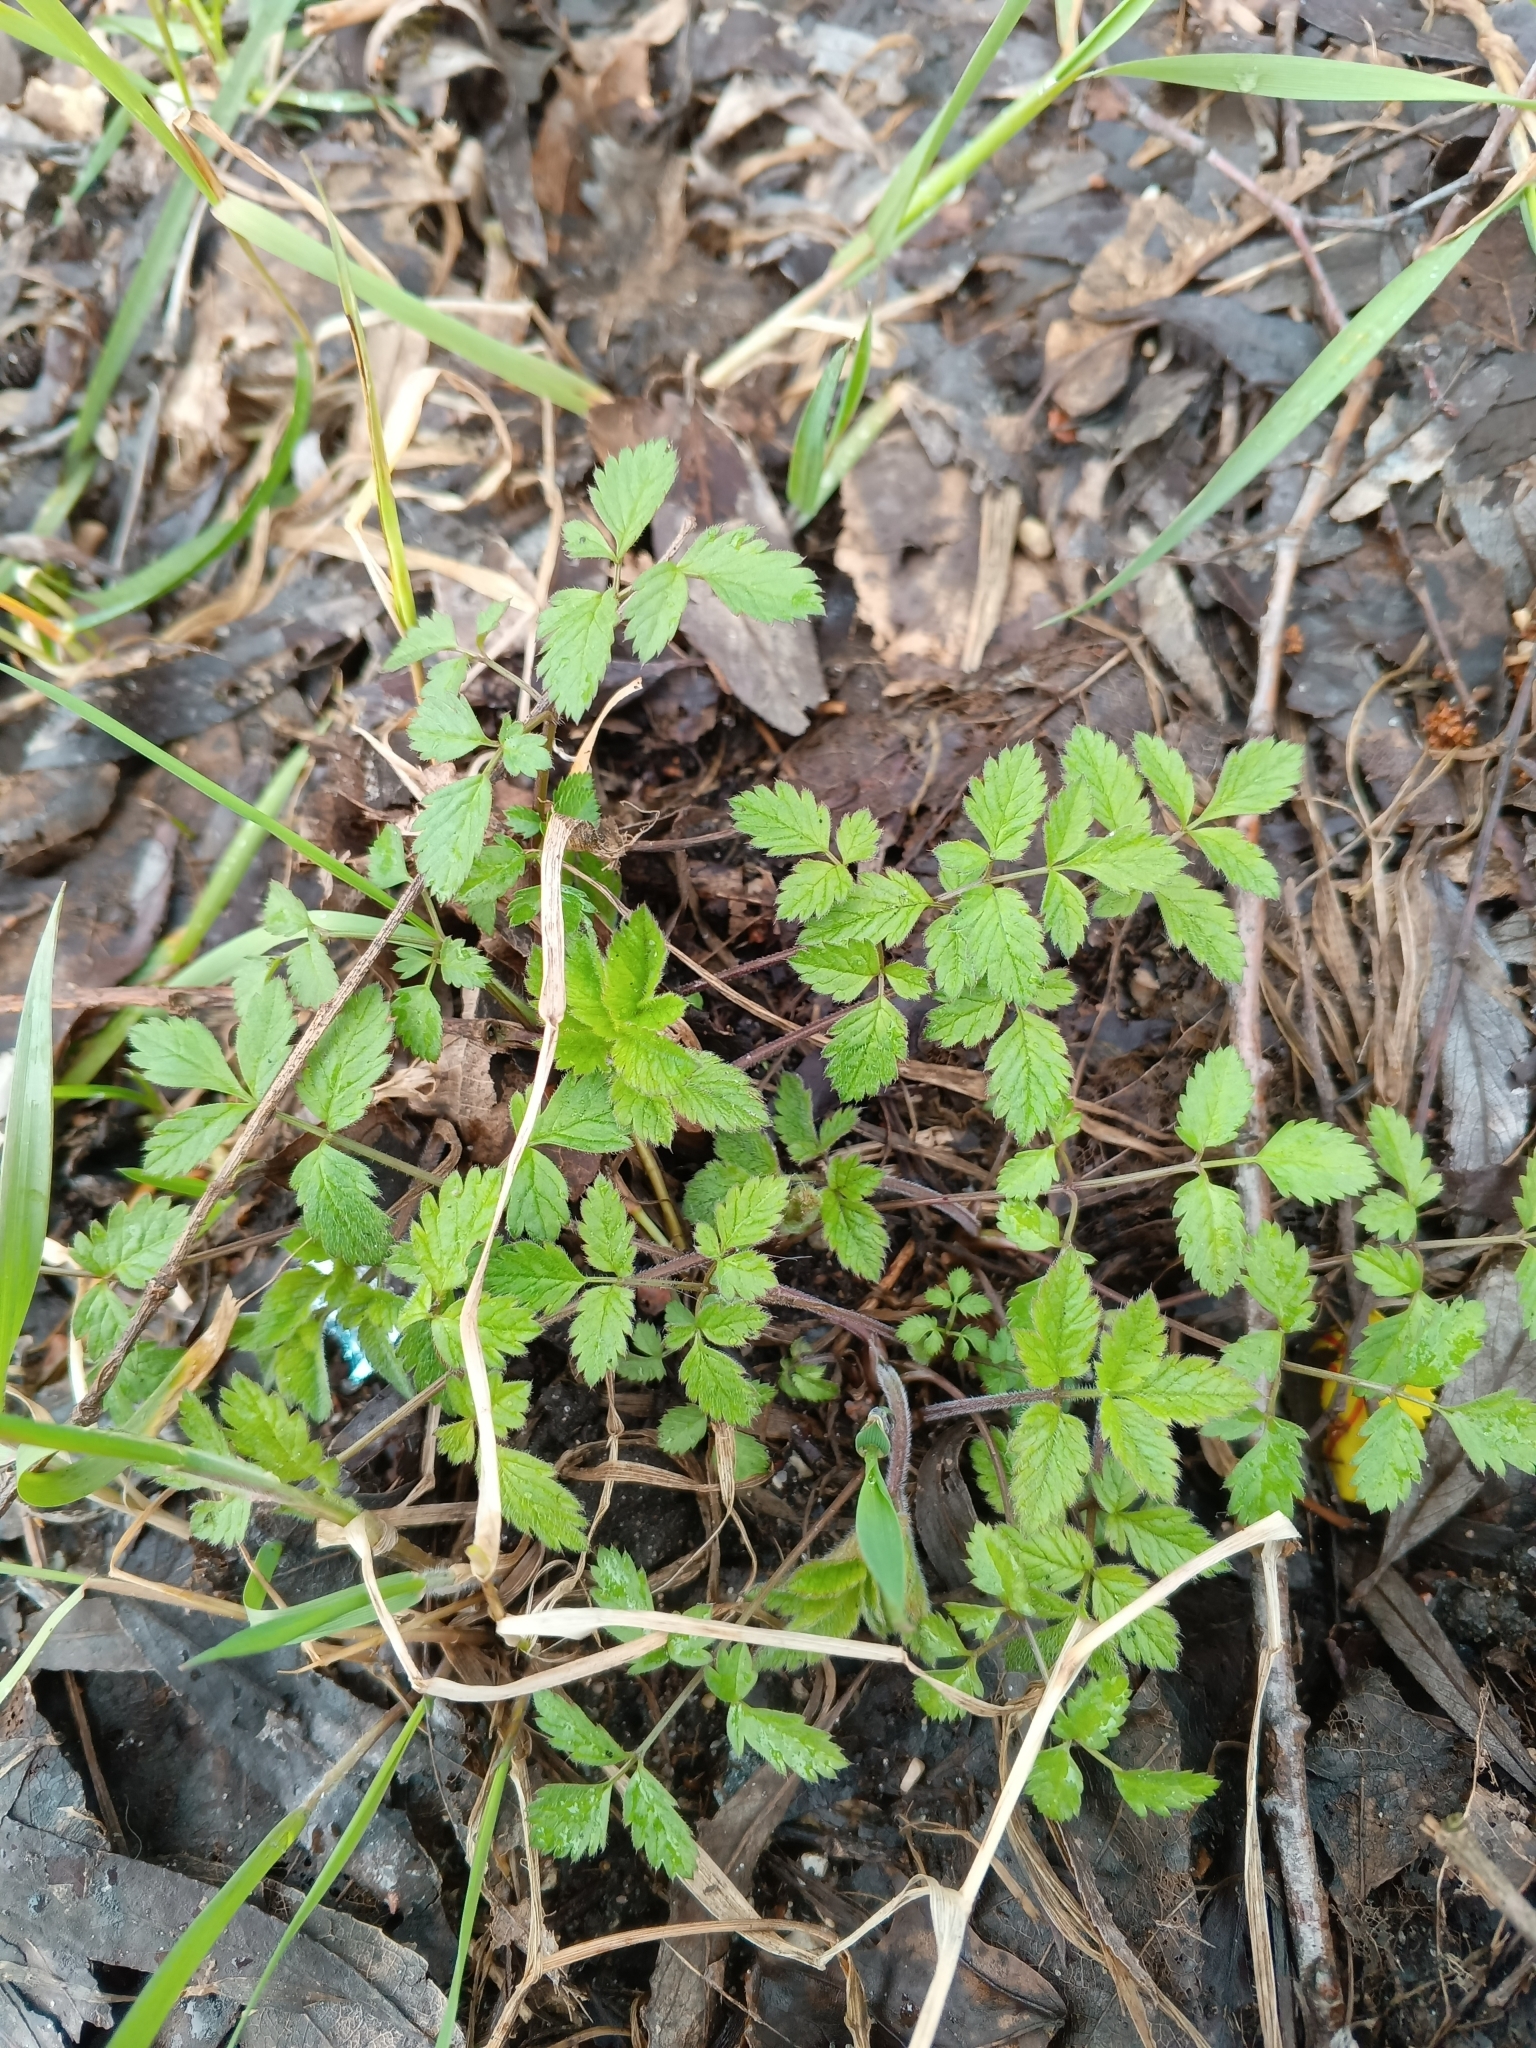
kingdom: Plantae
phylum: Tracheophyta
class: Magnoliopsida
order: Apiales
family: Apiaceae
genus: Chaerophyllum
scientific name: Chaerophyllum aromaticum
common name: Broadleaf chervil
